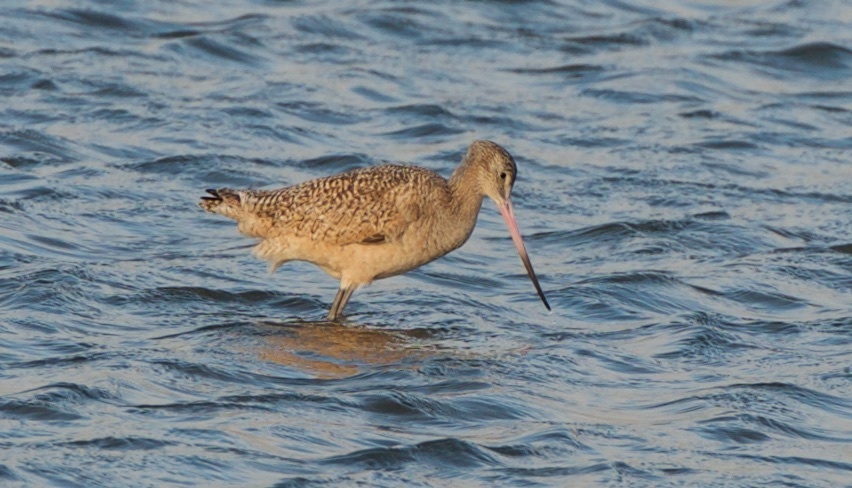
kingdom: Animalia
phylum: Chordata
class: Aves
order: Charadriiformes
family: Scolopacidae
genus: Limosa
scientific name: Limosa fedoa
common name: Marbled godwit
